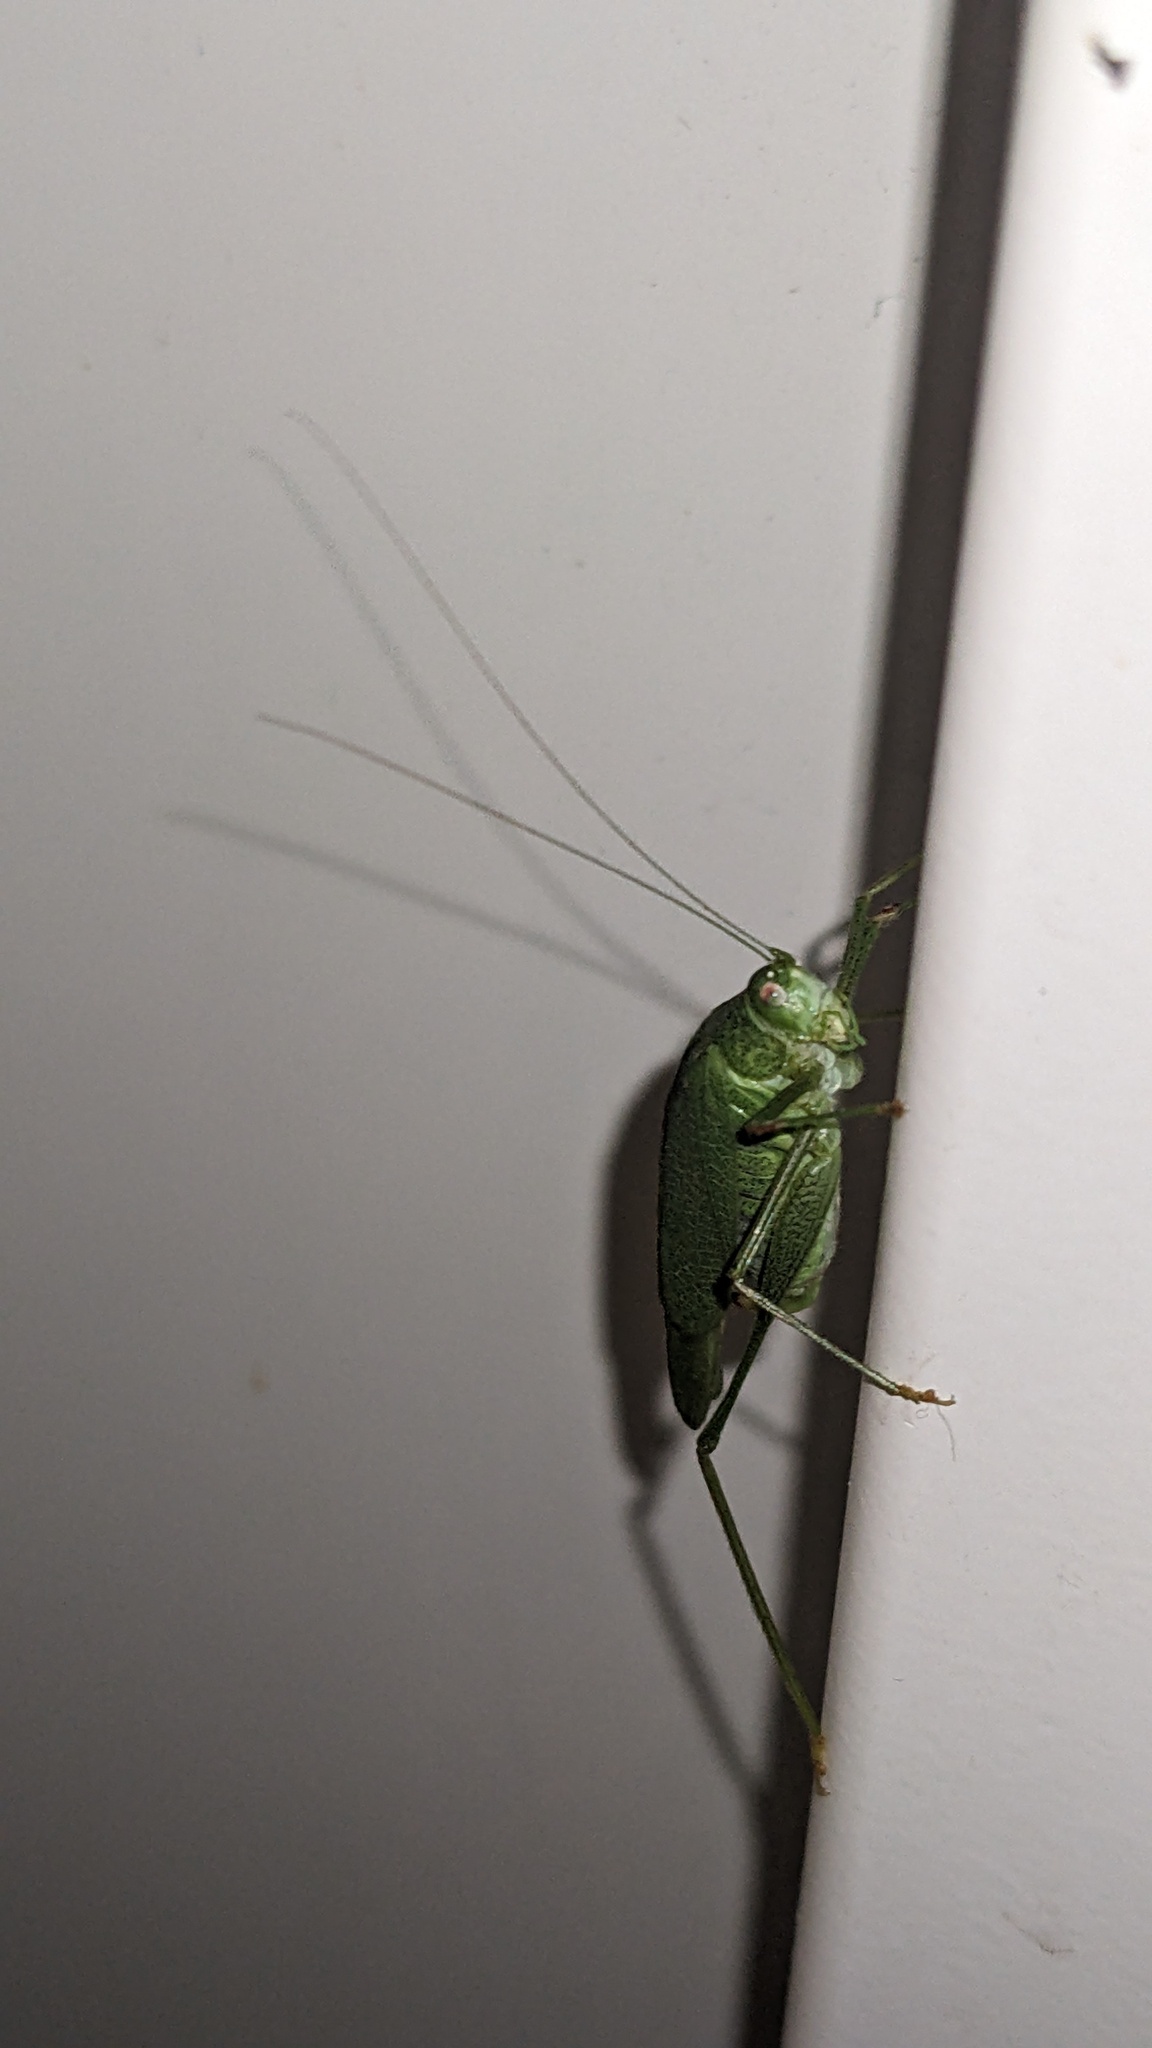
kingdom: Animalia
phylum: Arthropoda
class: Insecta
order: Orthoptera
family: Tettigoniidae
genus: Phaneroptera
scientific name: Phaneroptera nana
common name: Southern sickle bush-cricket
